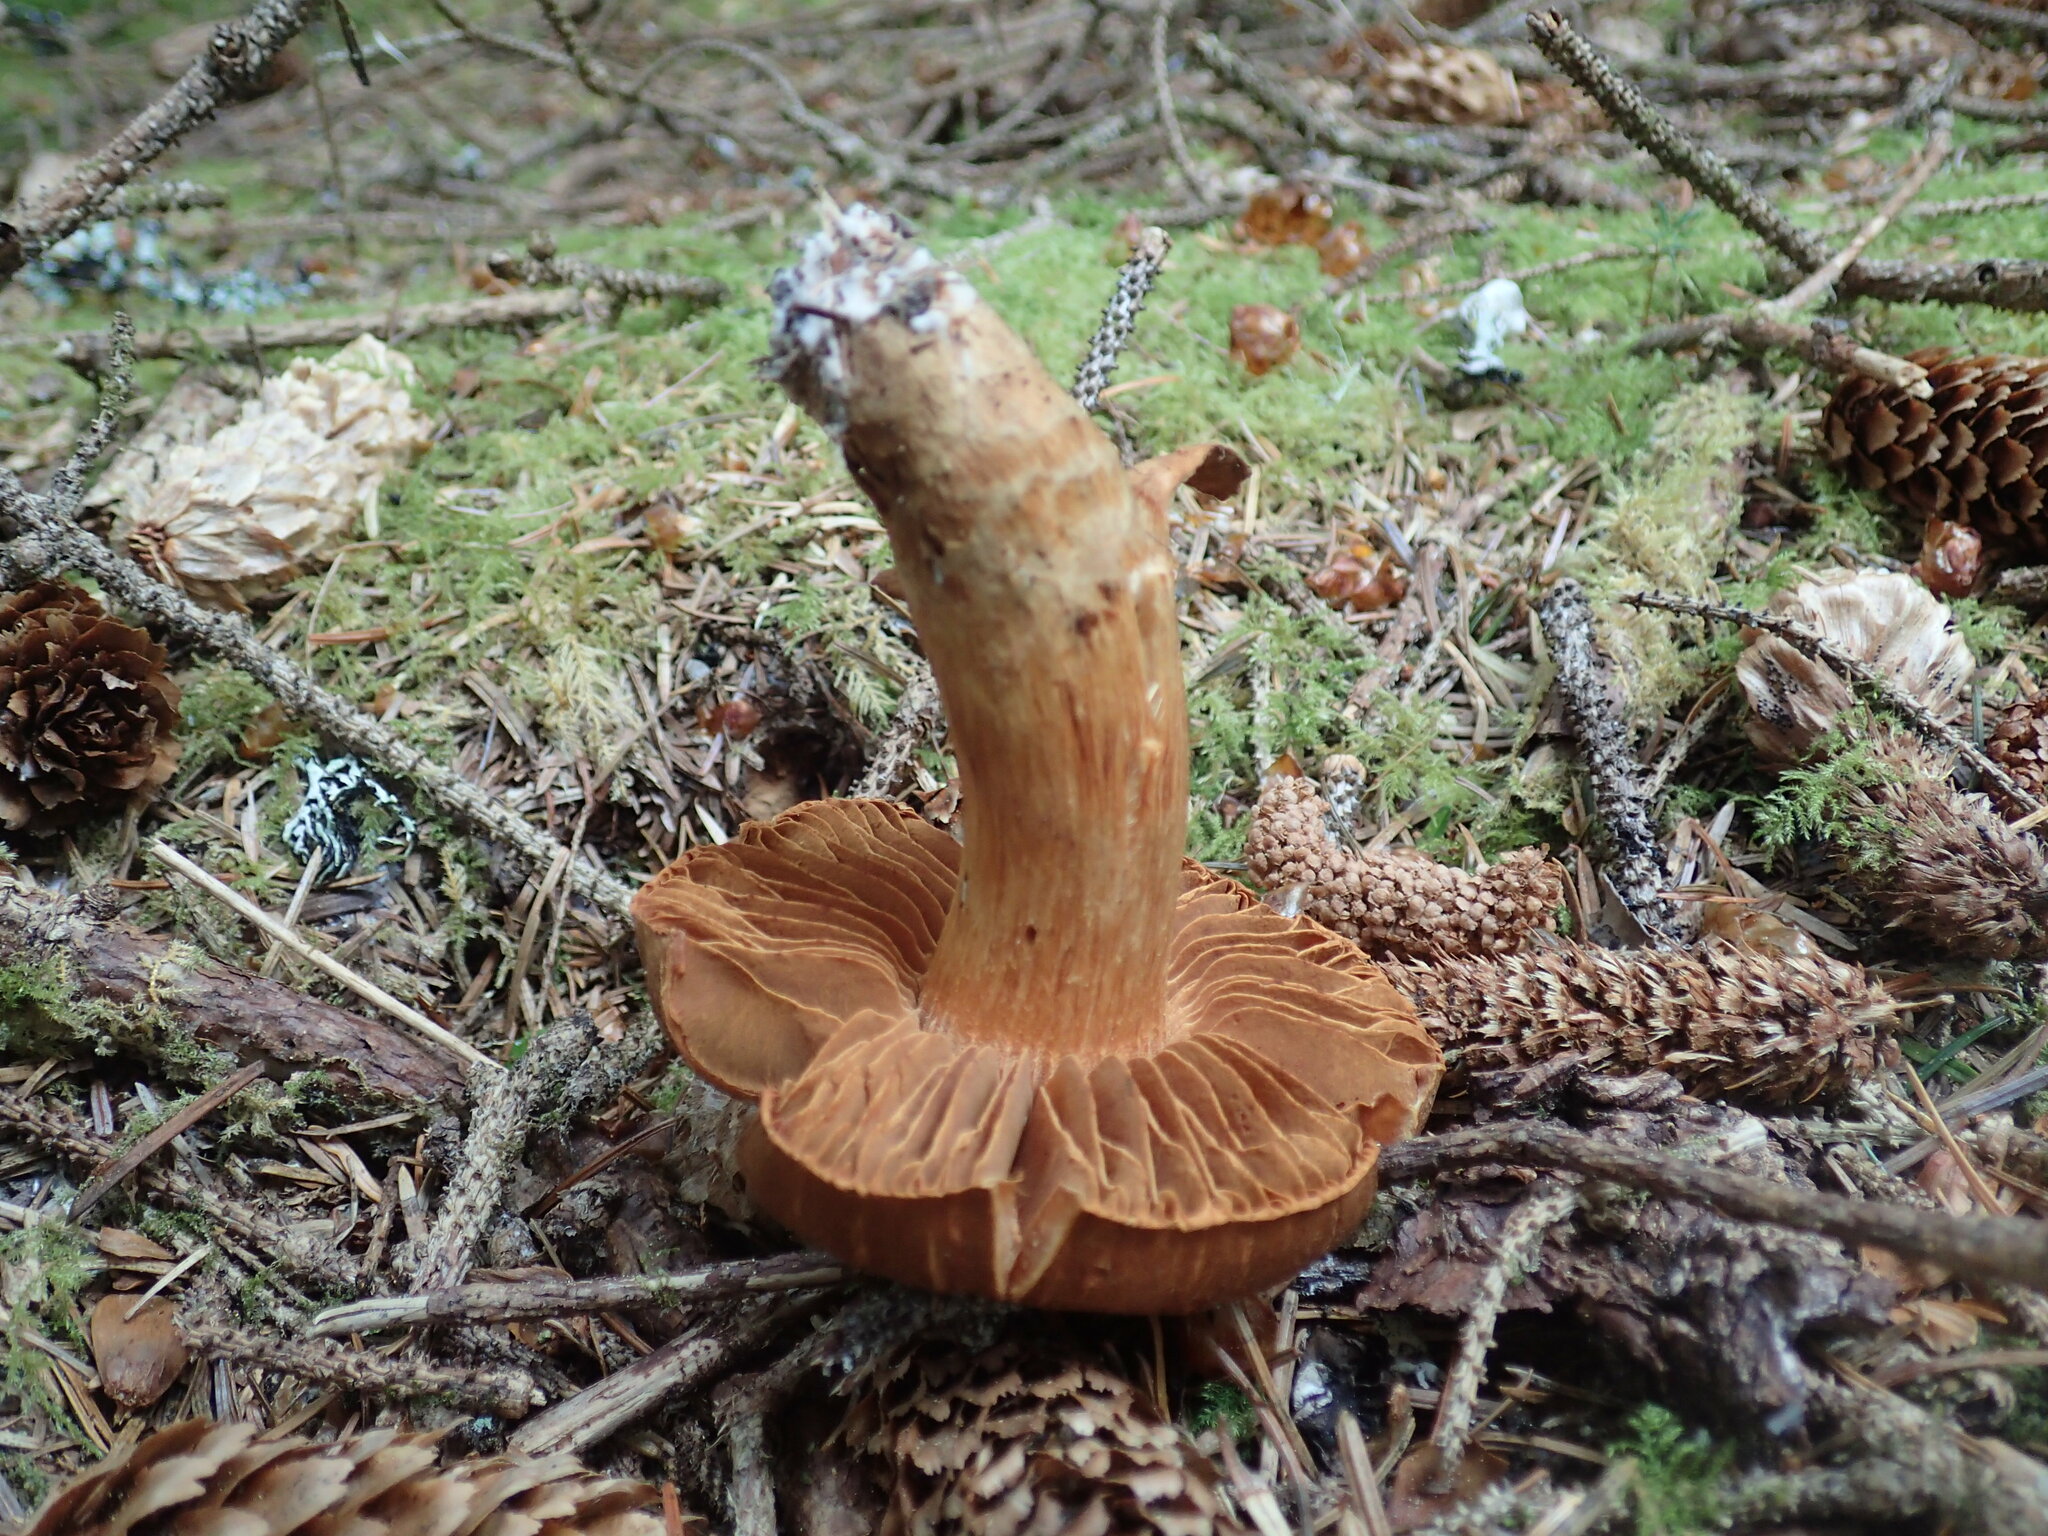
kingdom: Fungi
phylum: Basidiomycota
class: Agaricomycetes
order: Agaricales
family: Cortinariaceae
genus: Cortinarius
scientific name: Cortinarius rubellus
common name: Deadly webcap
